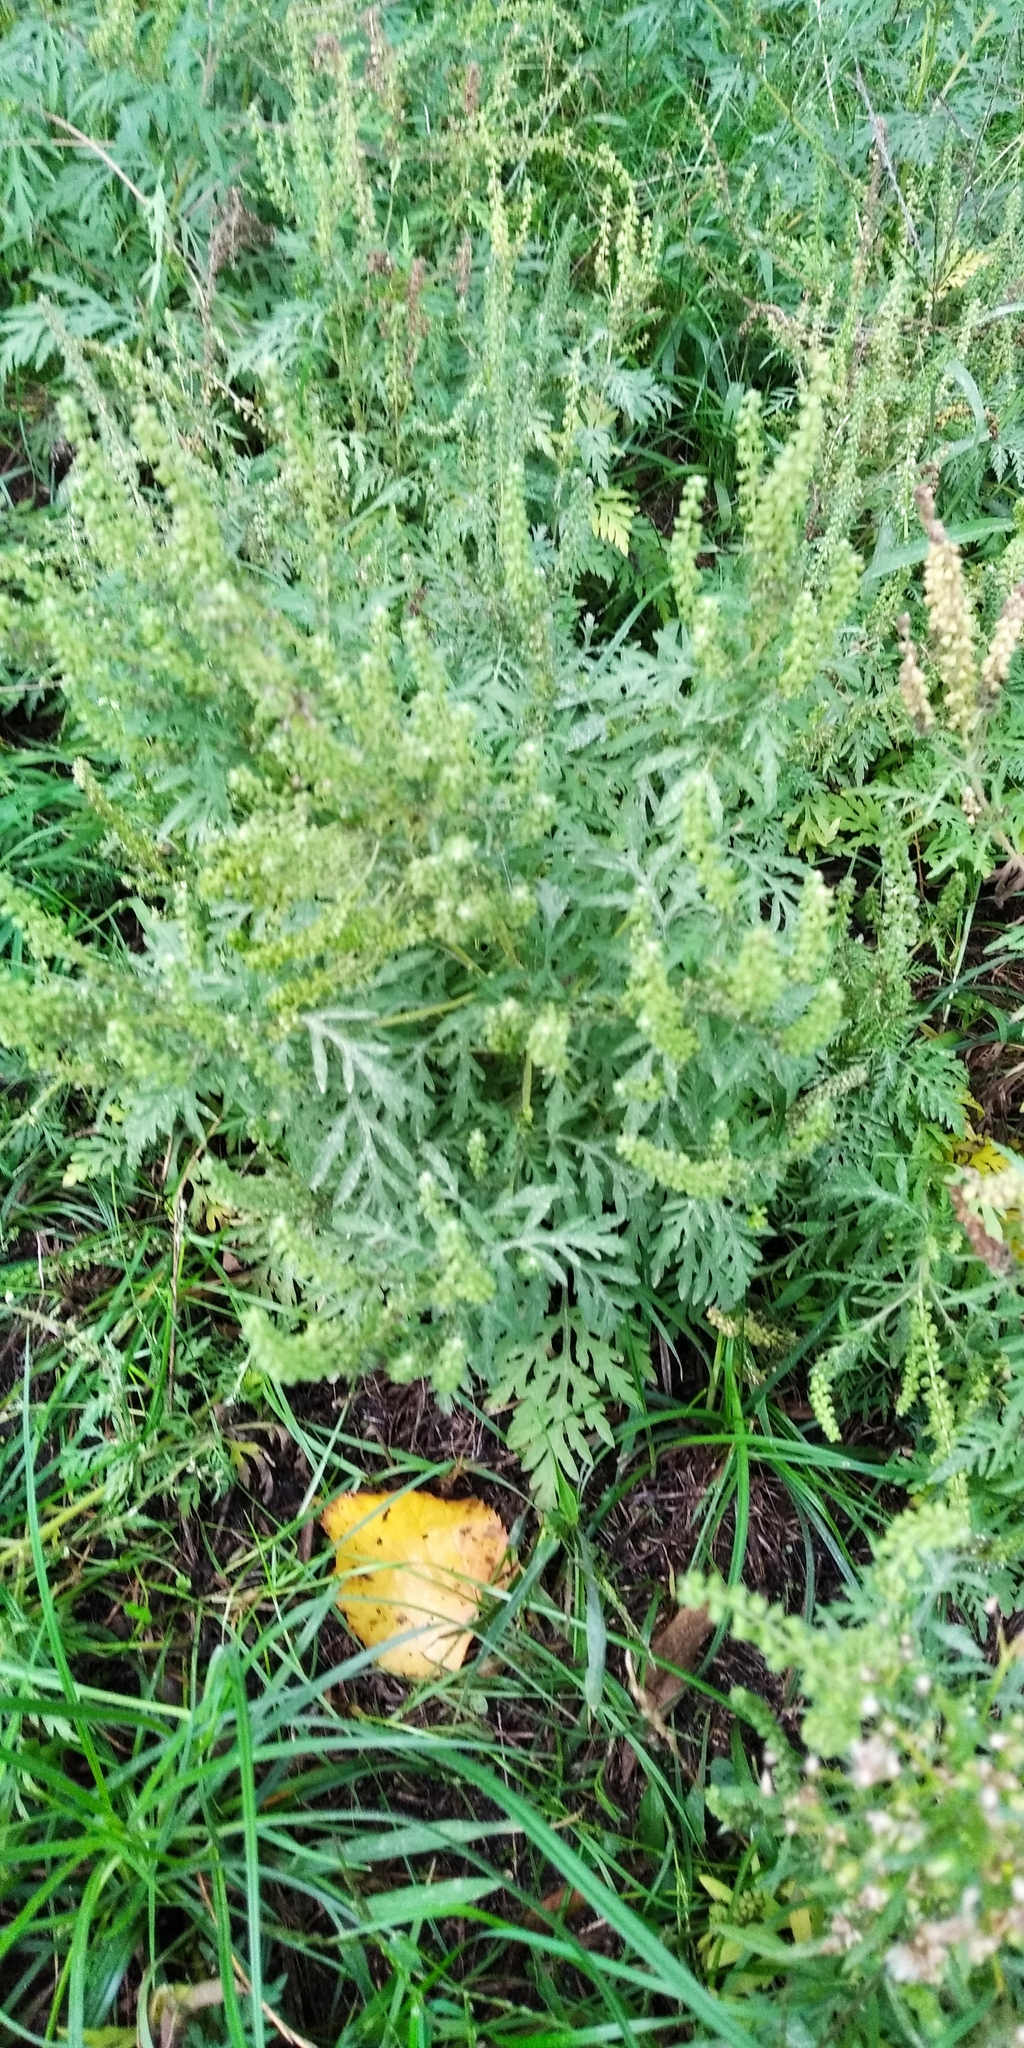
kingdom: Plantae
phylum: Tracheophyta
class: Magnoliopsida
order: Asterales
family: Asteraceae
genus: Ambrosia
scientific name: Ambrosia artemisiifolia
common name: Annual ragweed
